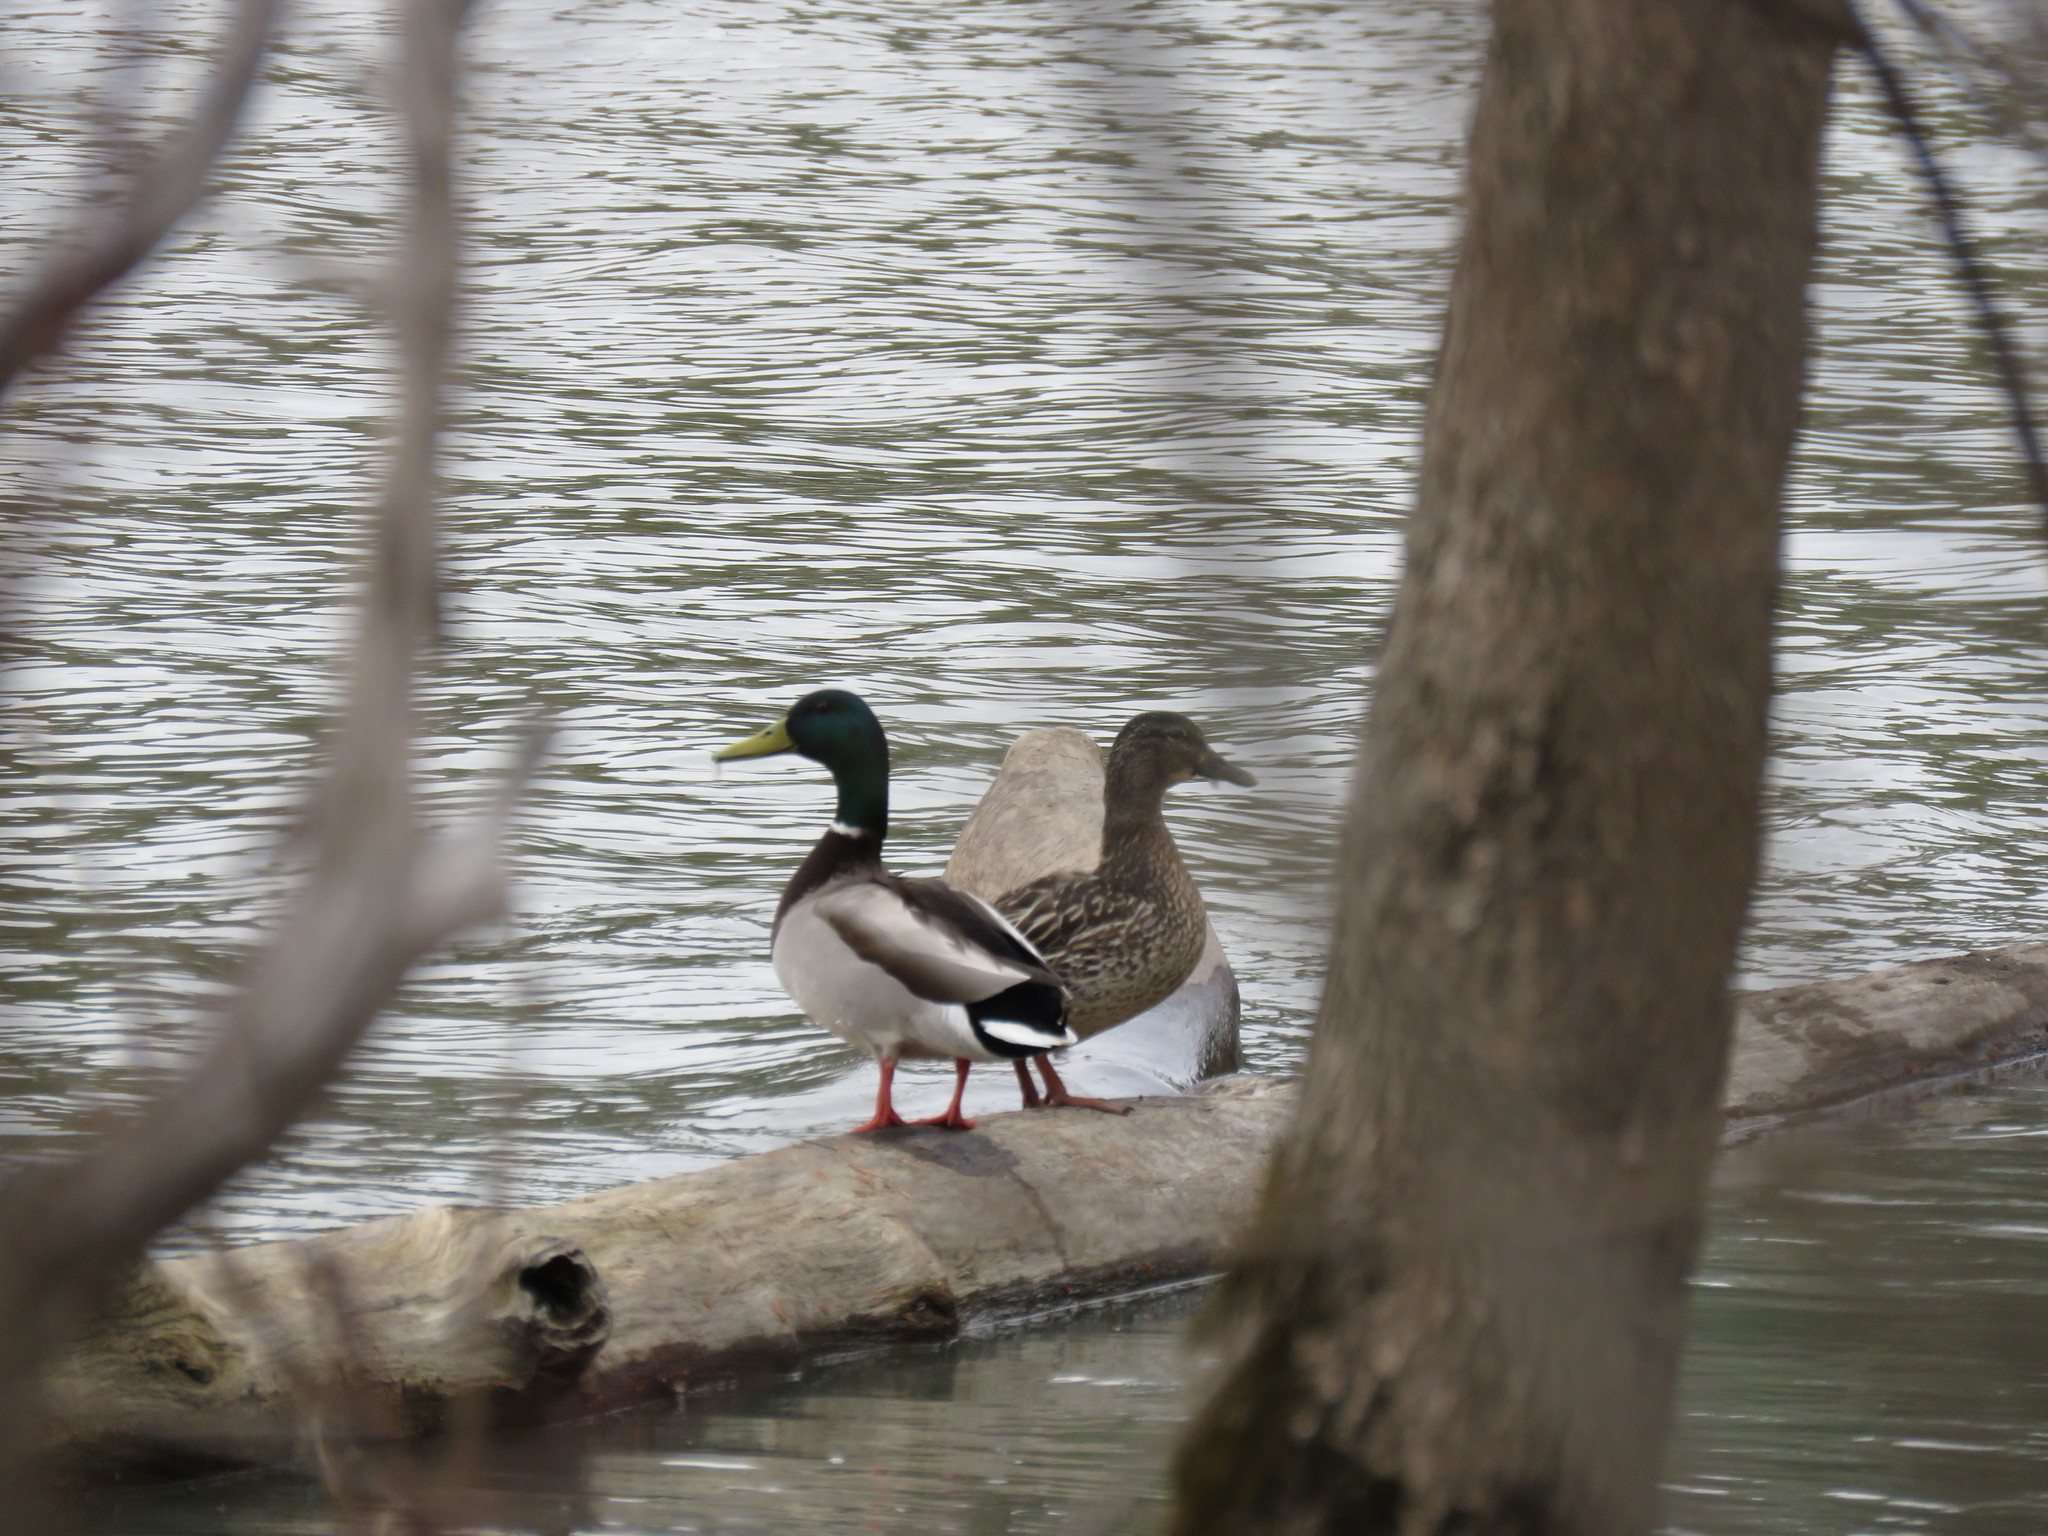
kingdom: Animalia
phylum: Chordata
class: Aves
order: Anseriformes
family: Anatidae
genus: Anas
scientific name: Anas platyrhynchos
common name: Mallard
